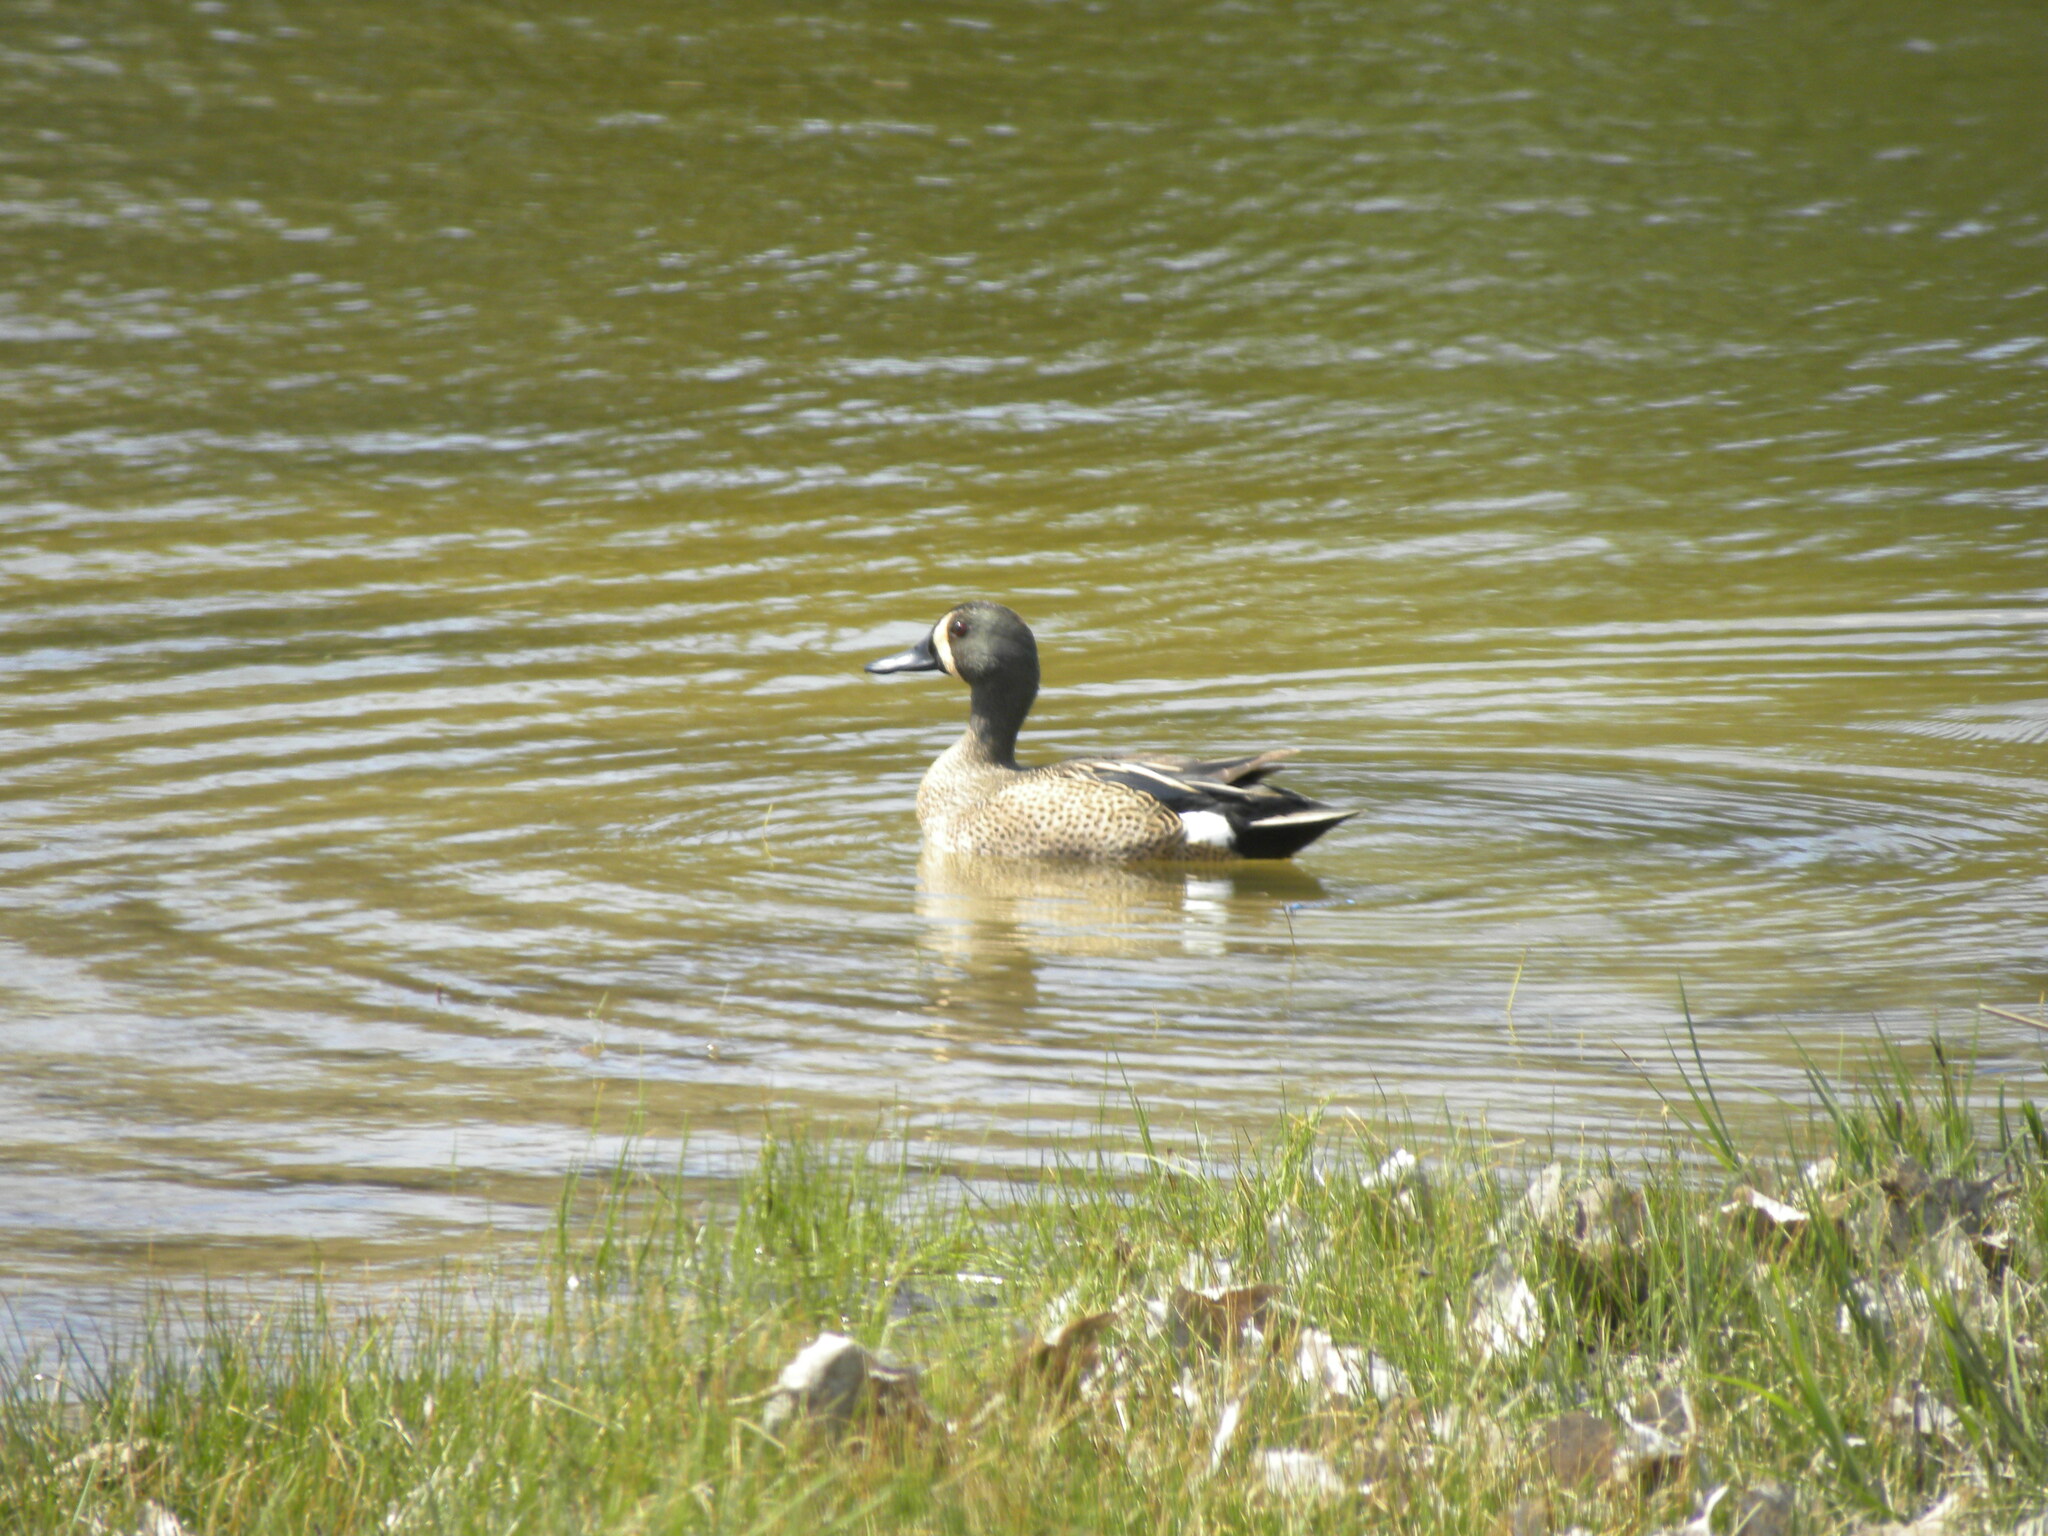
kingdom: Animalia
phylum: Chordata
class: Aves
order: Anseriformes
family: Anatidae
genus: Spatula
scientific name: Spatula discors
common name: Blue-winged teal
